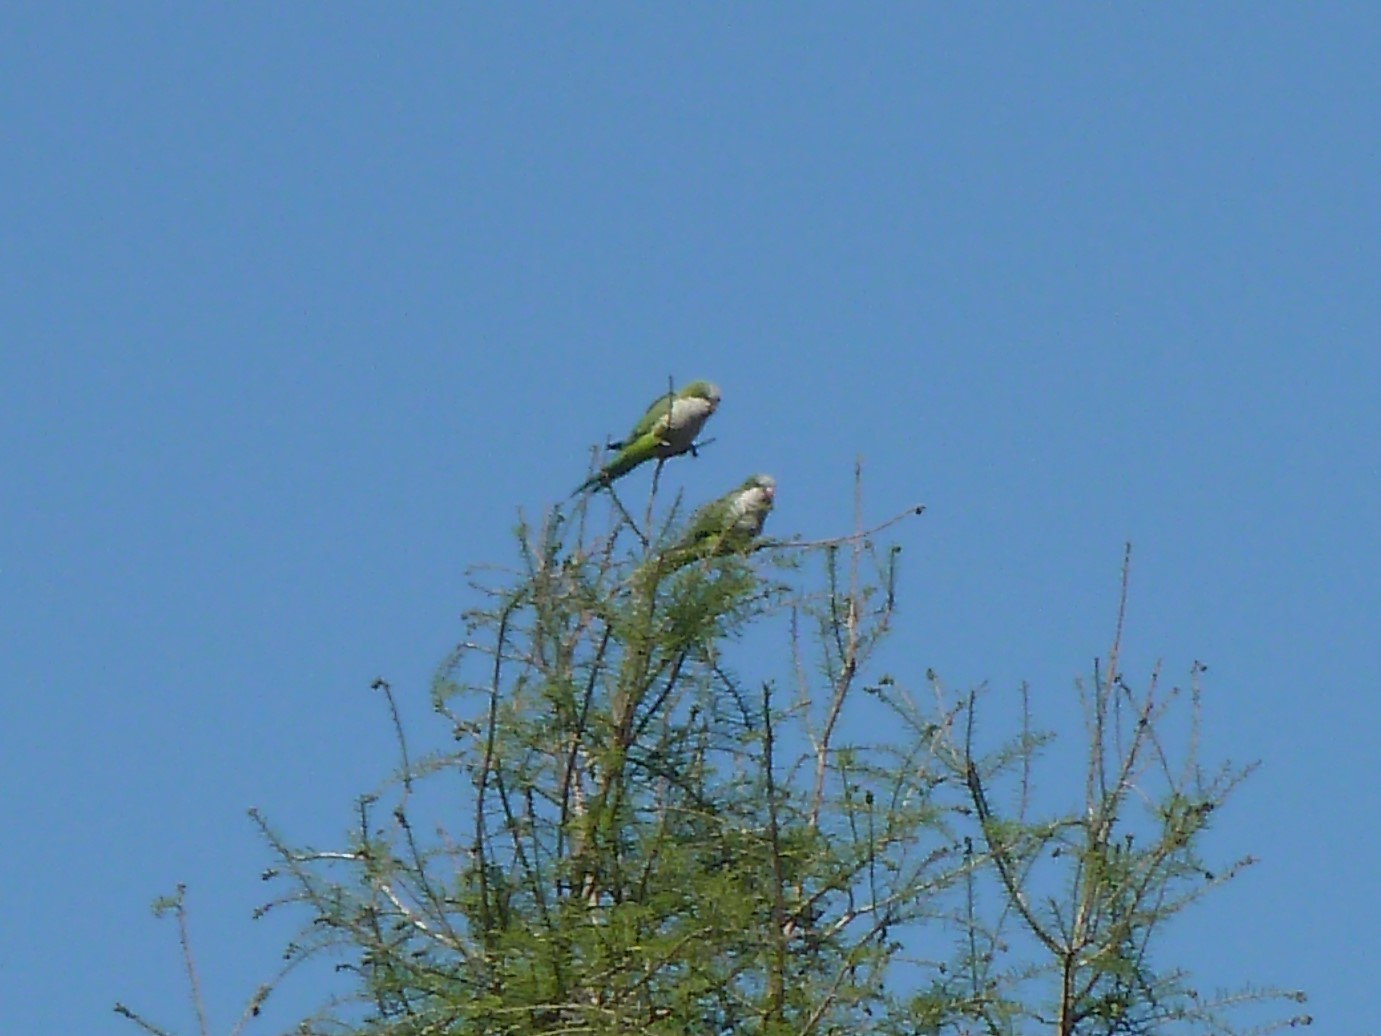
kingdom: Animalia
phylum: Chordata
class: Aves
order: Psittaciformes
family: Psittacidae
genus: Myiopsitta
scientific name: Myiopsitta monachus
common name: Monk parakeet
